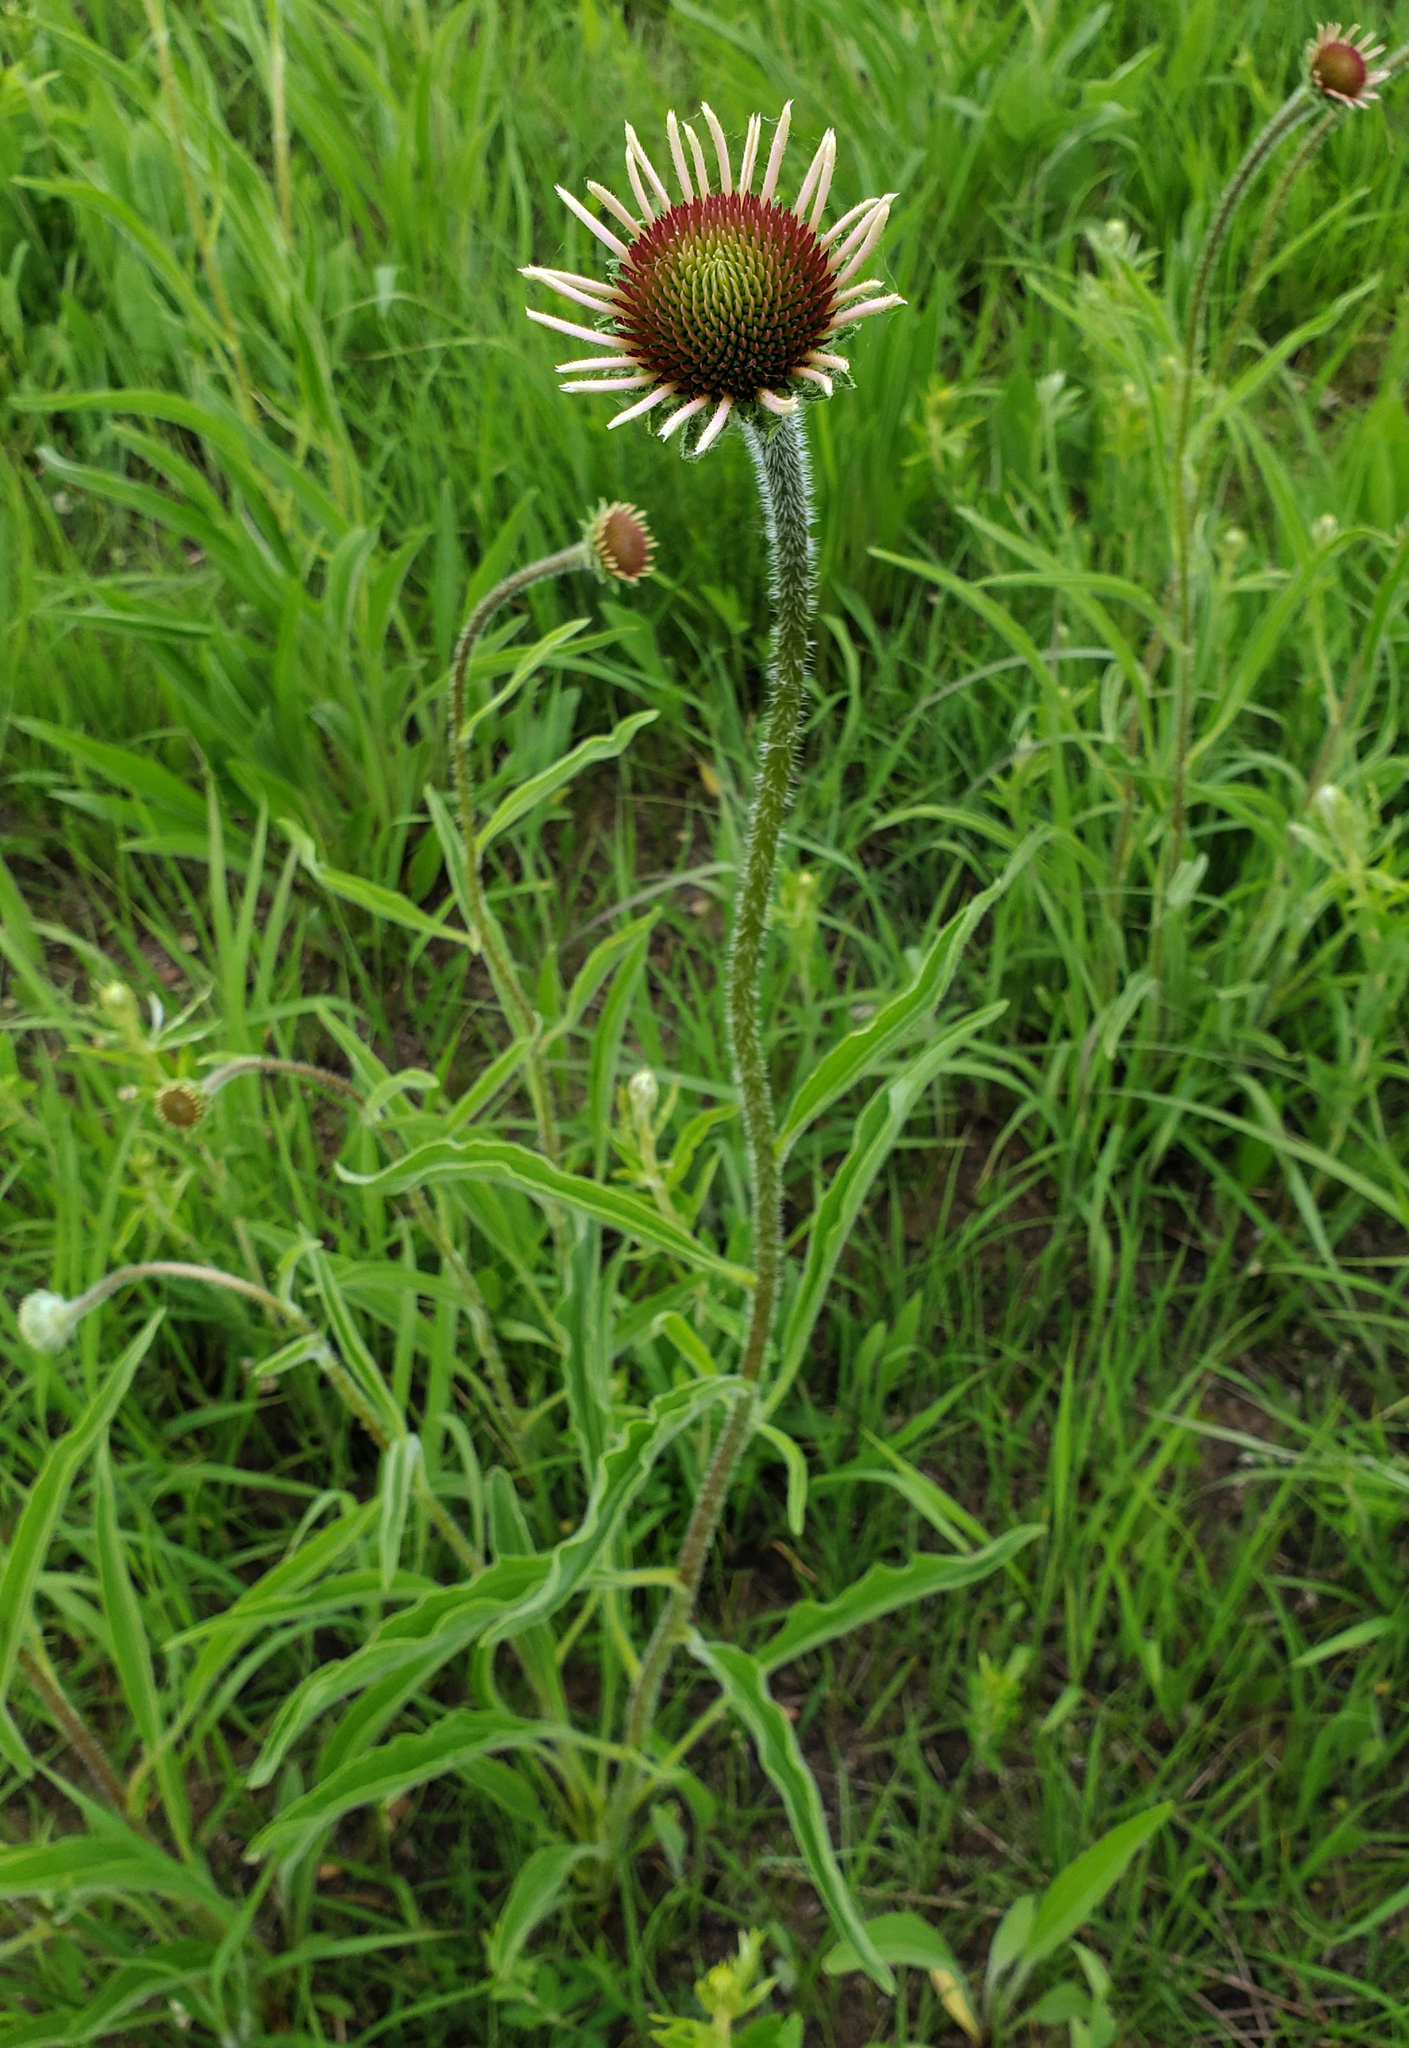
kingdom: Plantae
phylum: Tracheophyta
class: Magnoliopsida
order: Asterales
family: Asteraceae
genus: Echinacea
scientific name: Echinacea pallida
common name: Pale echinacea
